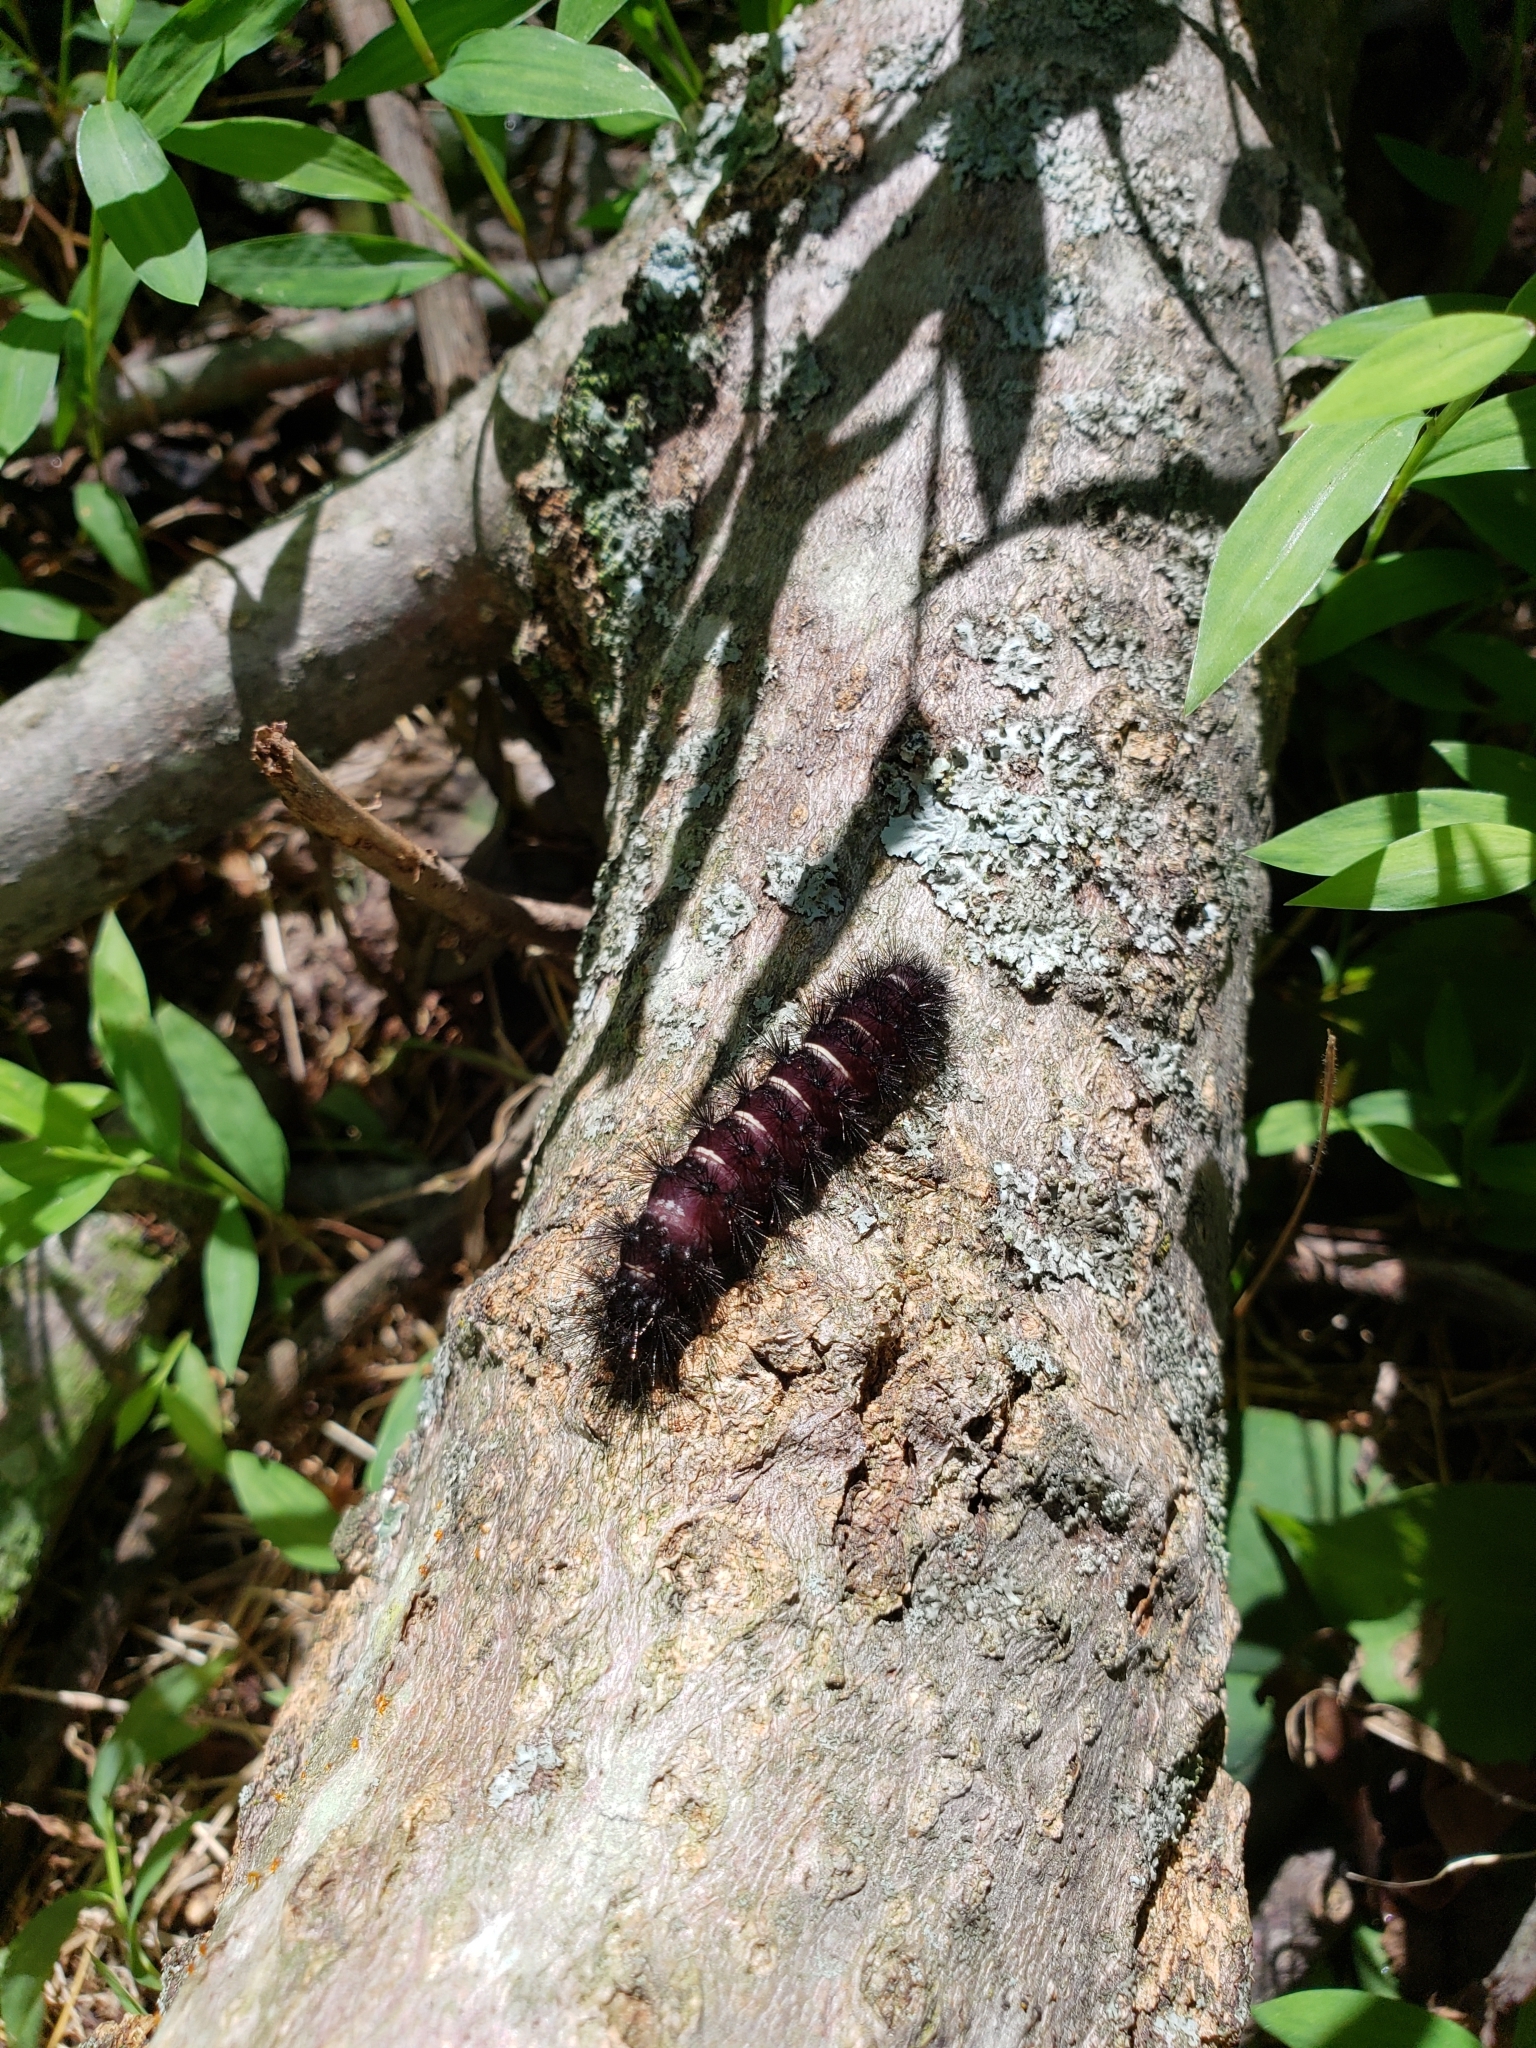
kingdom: Animalia
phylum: Arthropoda
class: Insecta
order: Lepidoptera
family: Erebidae
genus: Spilosoma
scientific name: Spilosoma congrua
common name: Agreeable tiger moth
